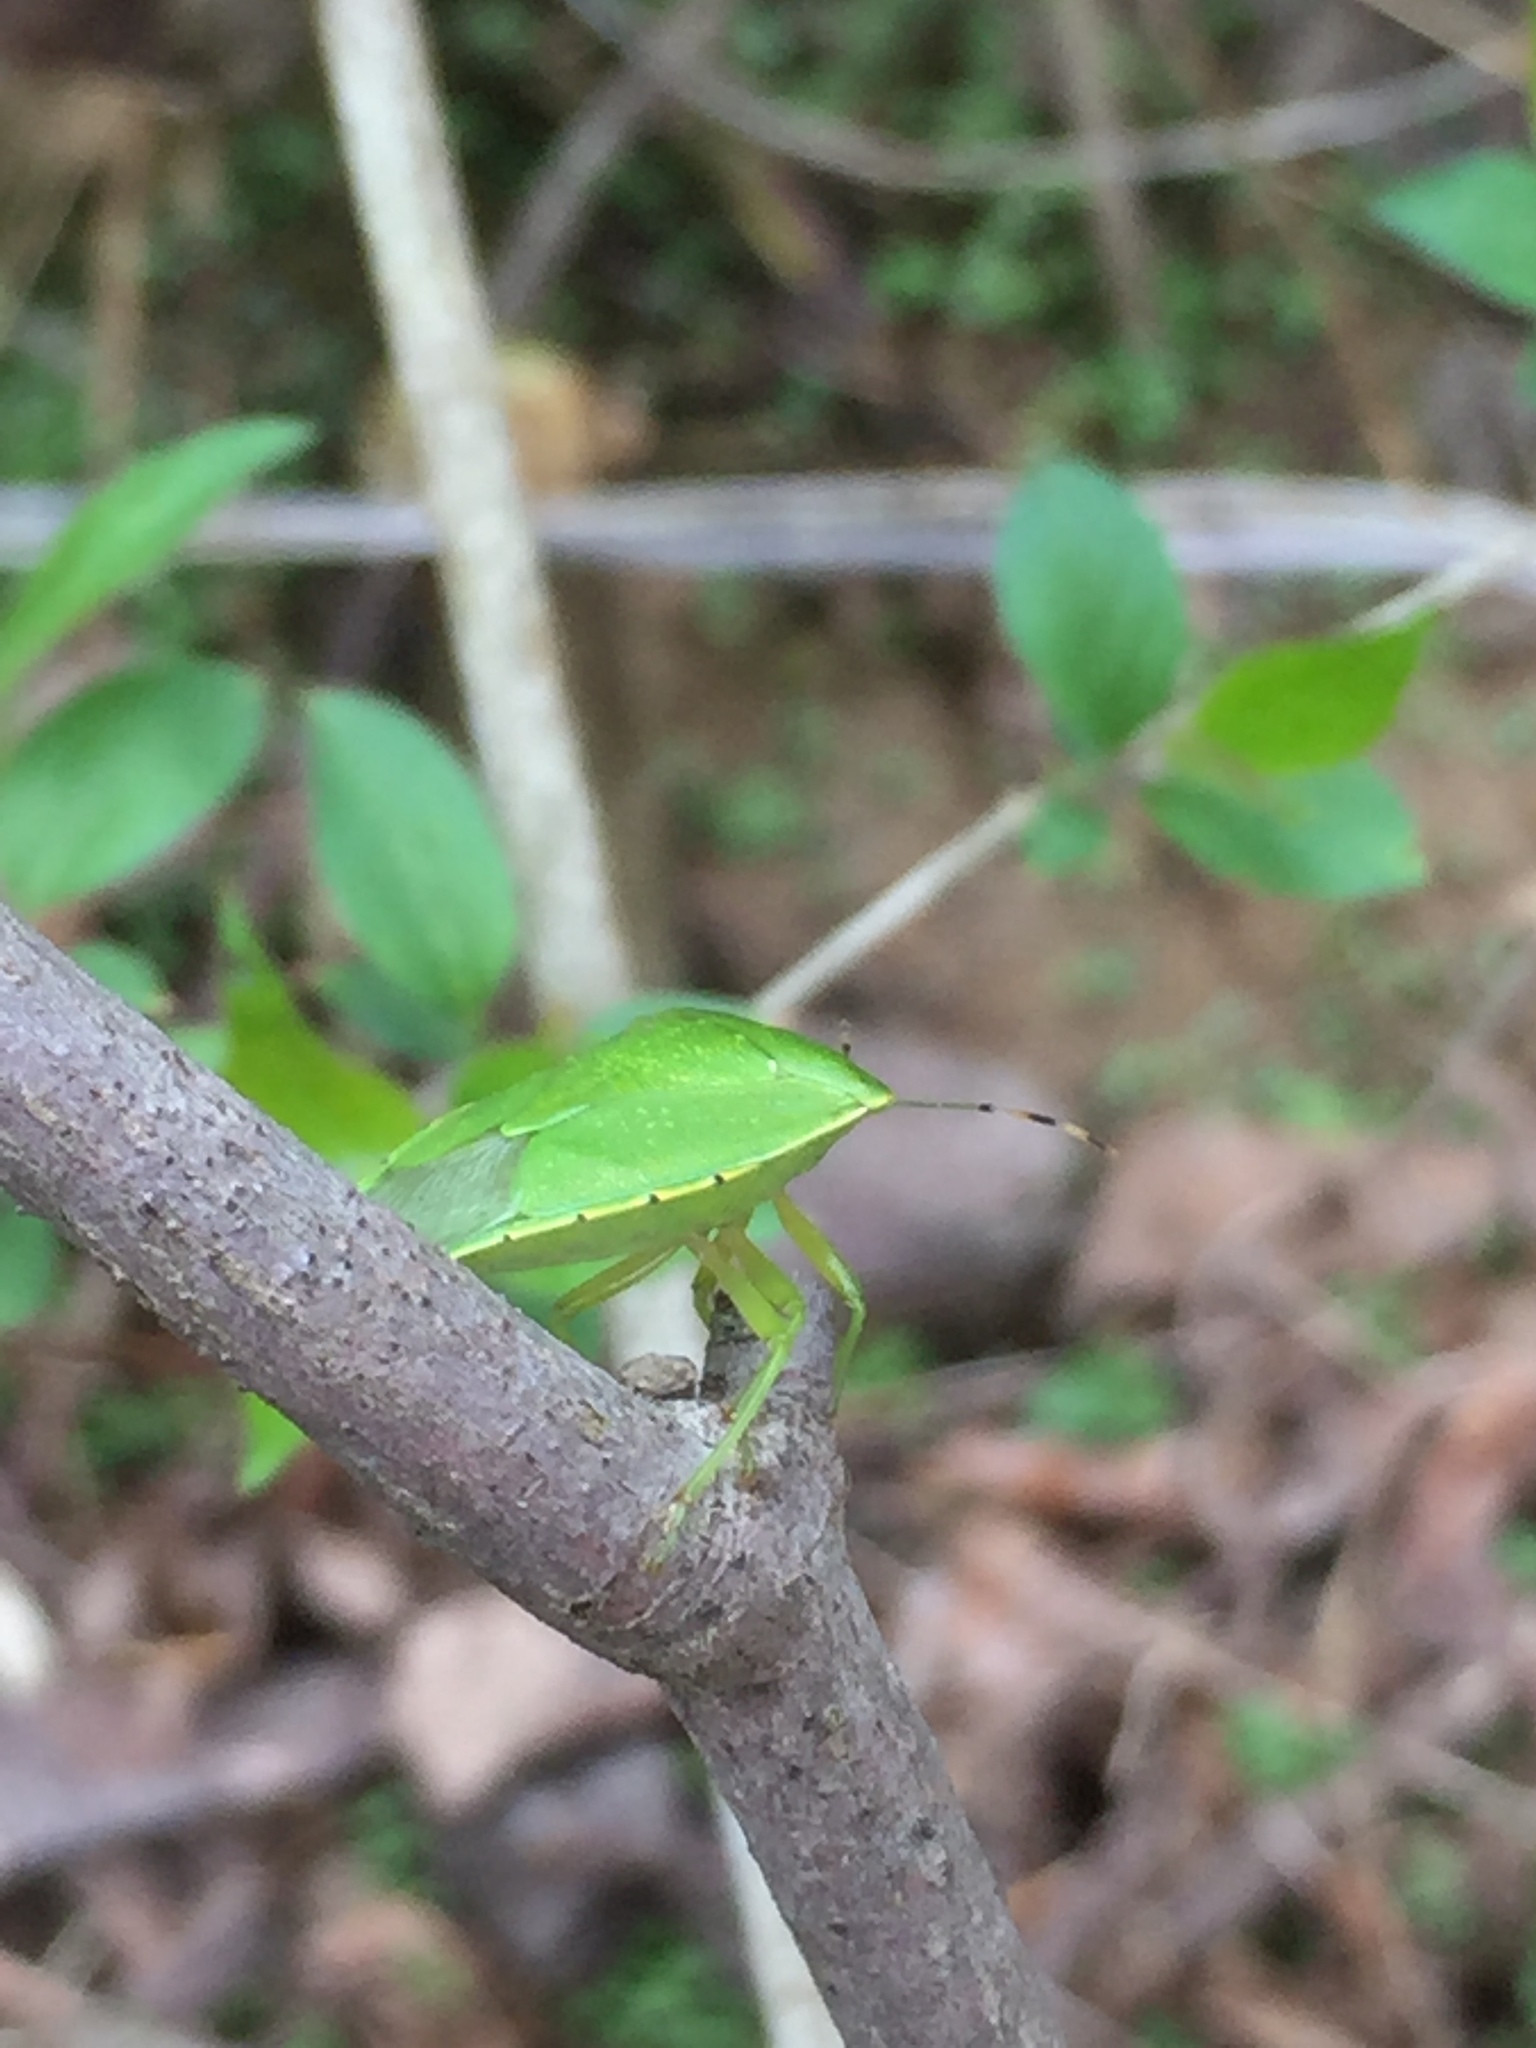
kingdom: Animalia
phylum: Arthropoda
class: Insecta
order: Hemiptera
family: Pentatomidae
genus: Chinavia
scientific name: Chinavia hilaris
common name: Green stink bug
